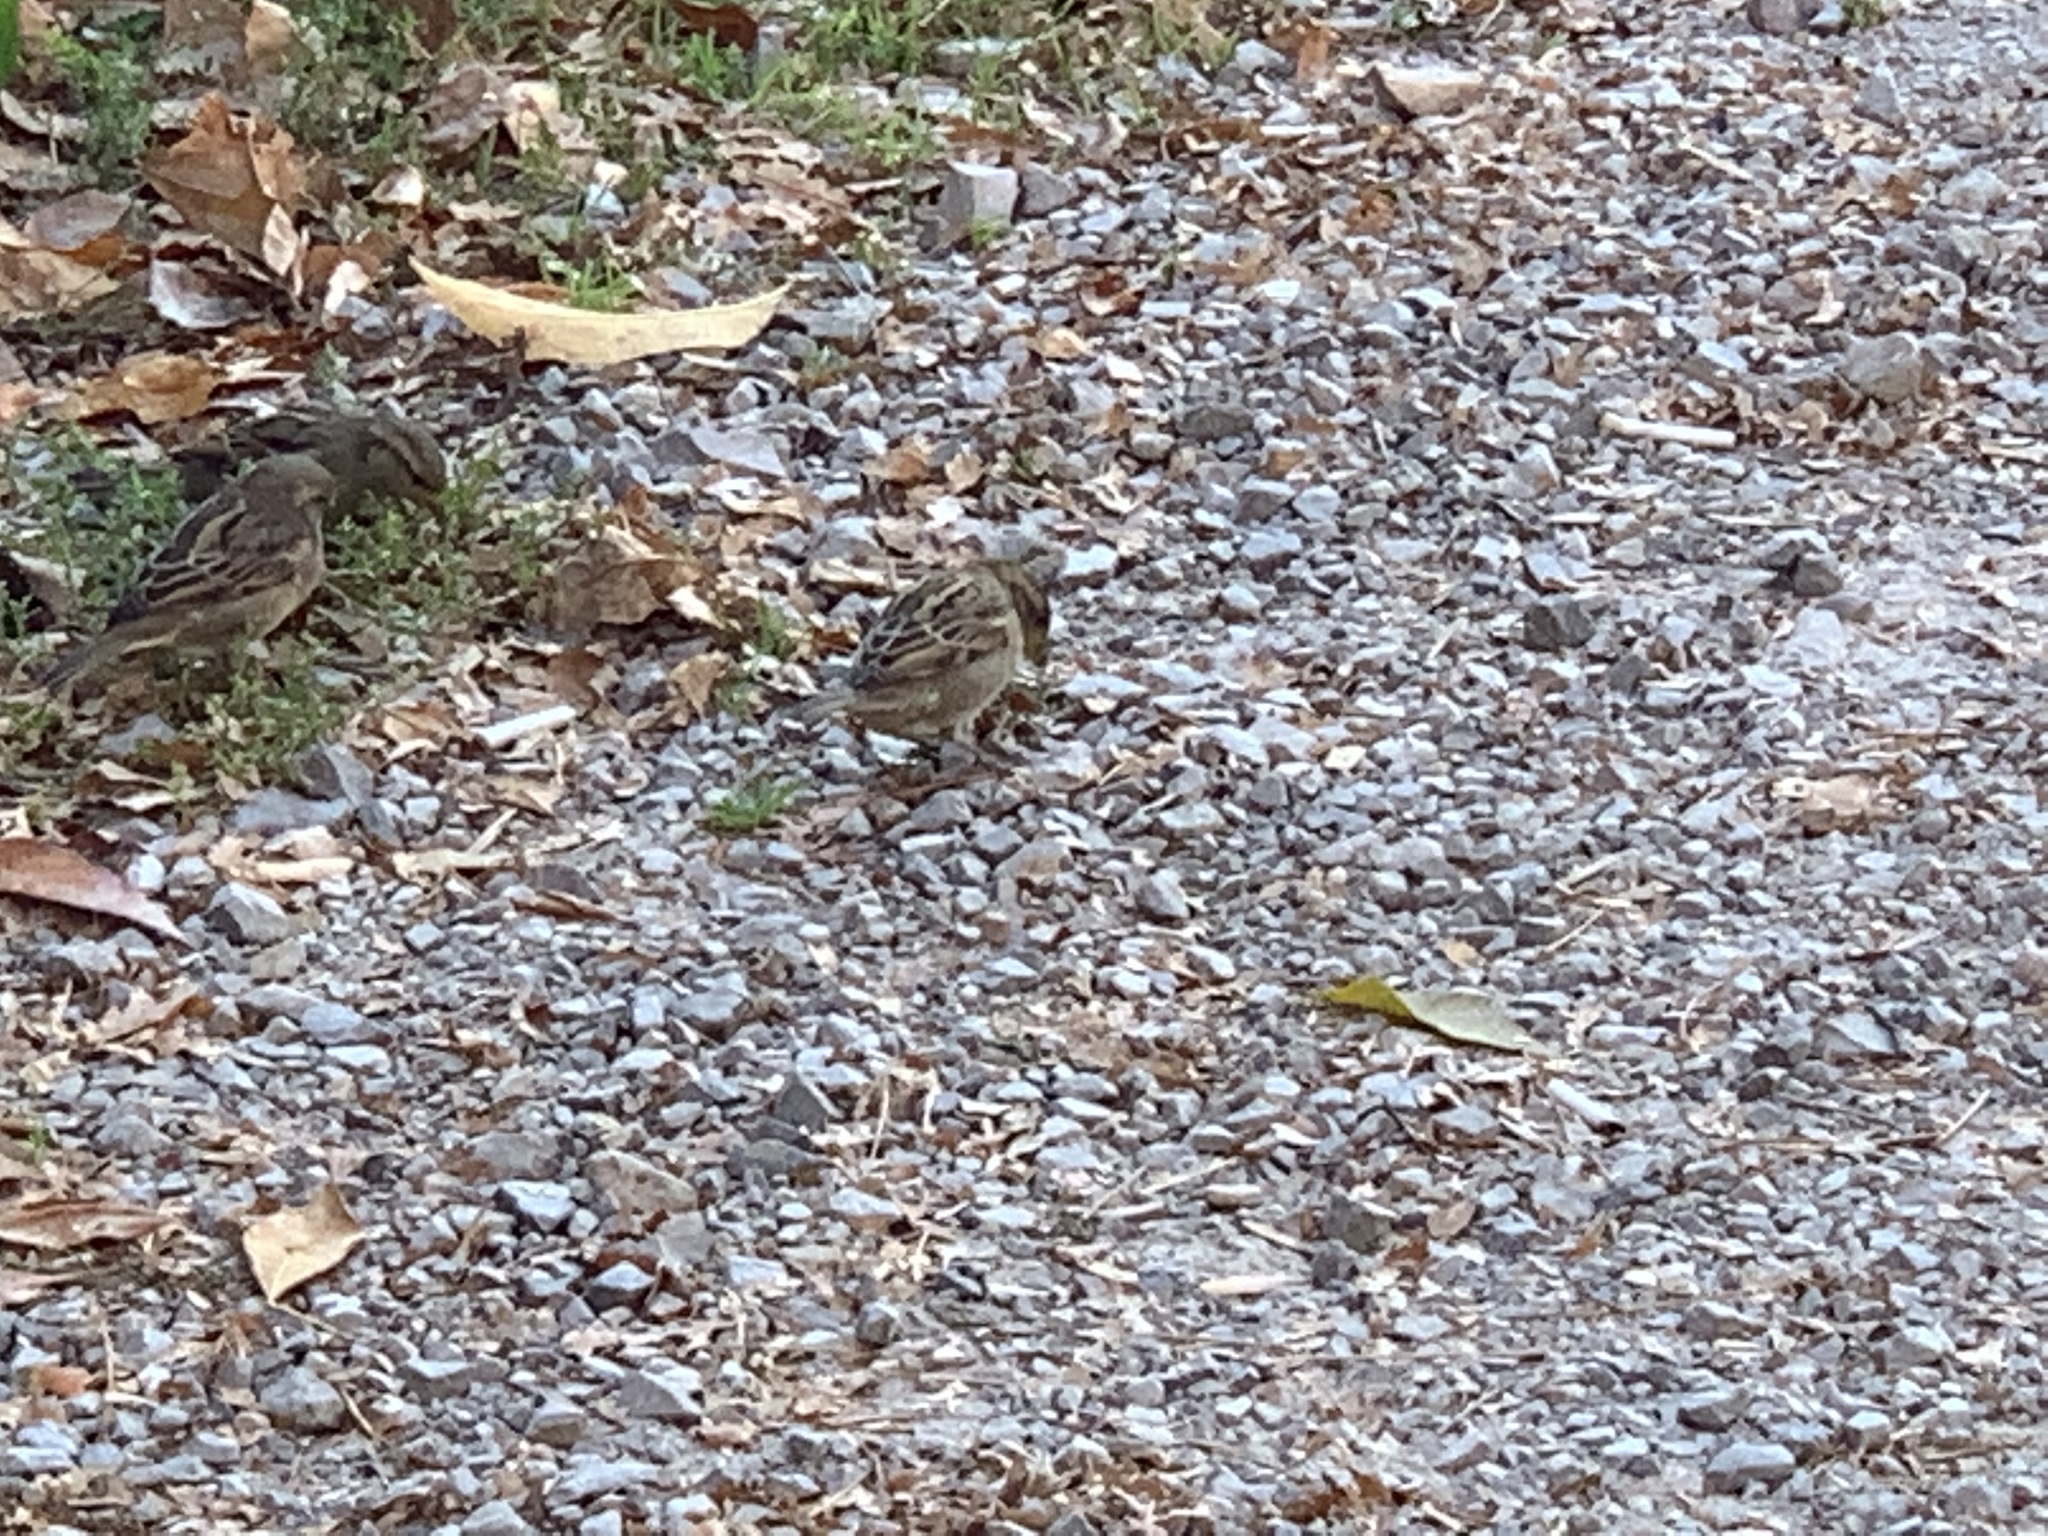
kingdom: Animalia
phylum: Chordata
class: Aves
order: Passeriformes
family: Passeridae
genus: Passer
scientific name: Passer domesticus
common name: House sparrow
